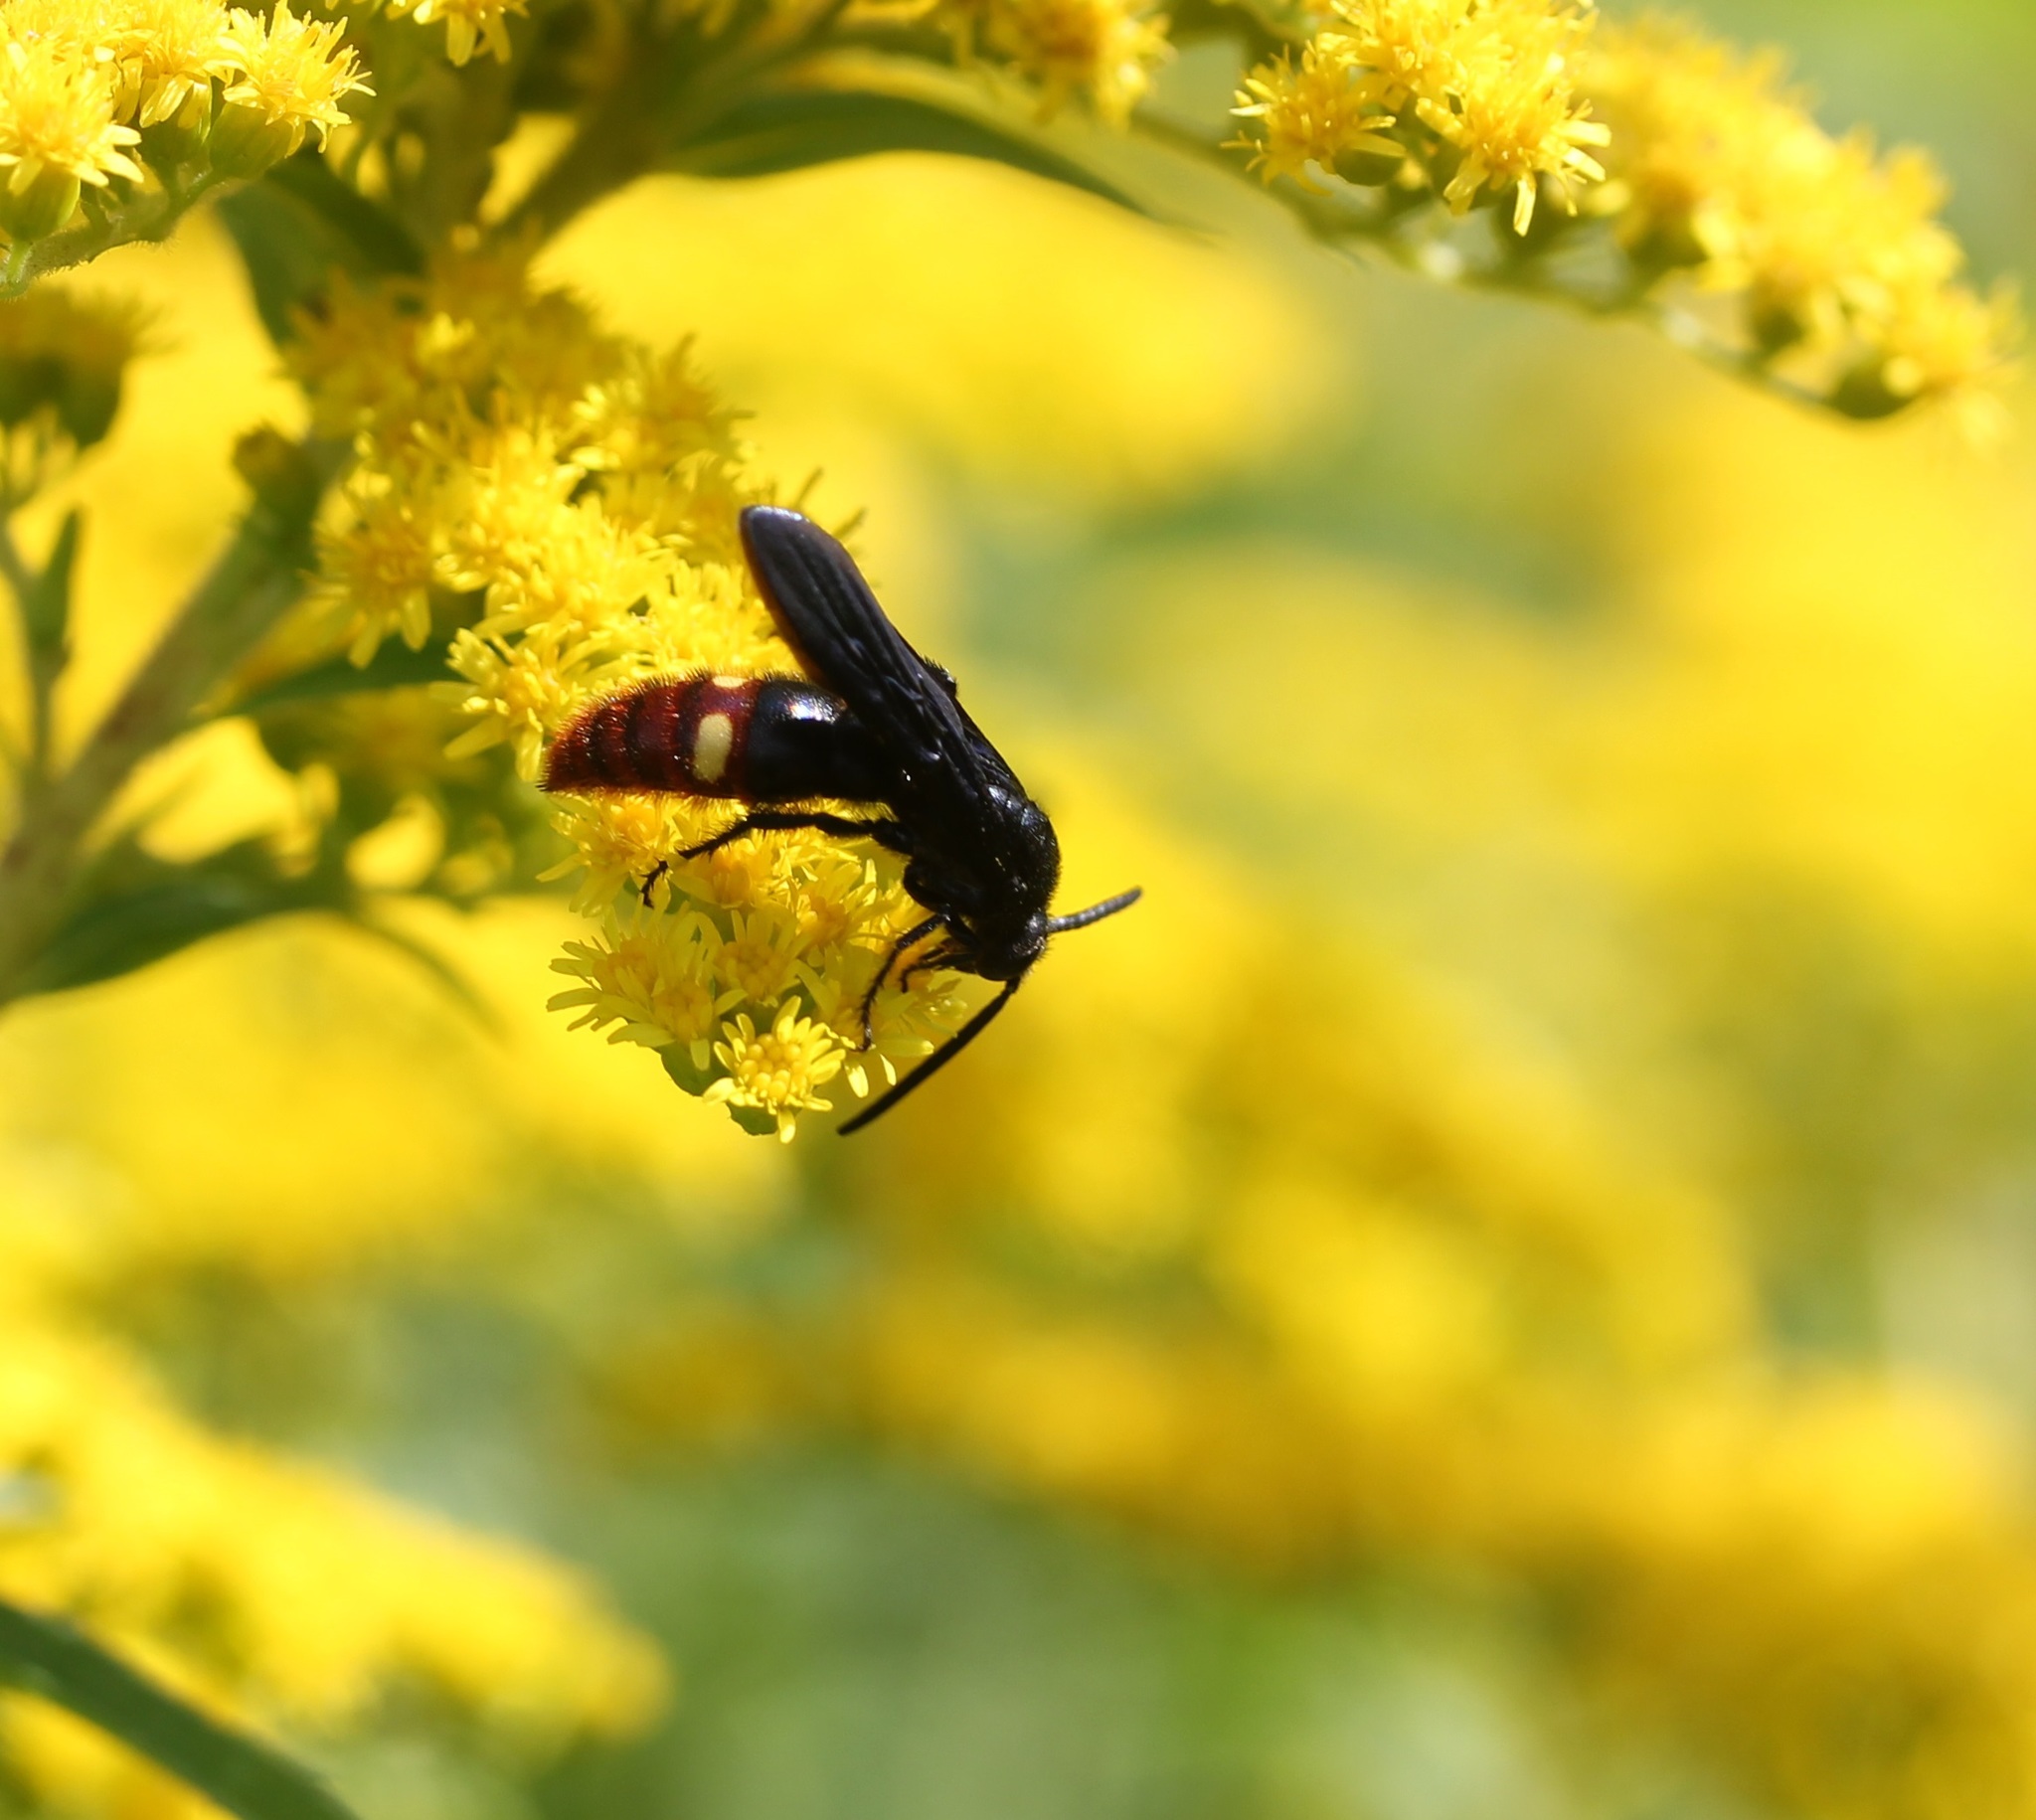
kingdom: Animalia
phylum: Arthropoda
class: Insecta
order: Hymenoptera
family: Scoliidae
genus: Scolia
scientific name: Scolia dubia
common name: Blue-winged scoliid wasp
